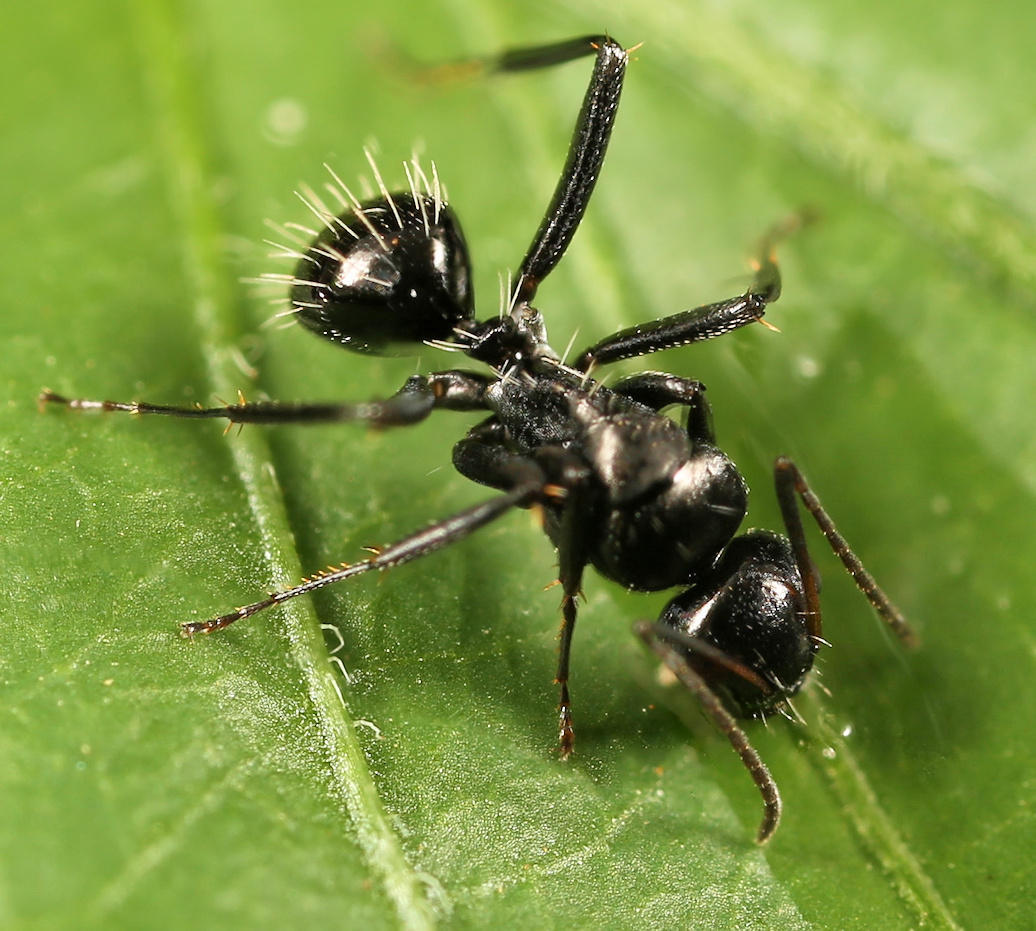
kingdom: Animalia
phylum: Arthropoda
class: Insecta
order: Hymenoptera
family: Formicidae
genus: Camponotus
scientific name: Camponotus niveosetosus
